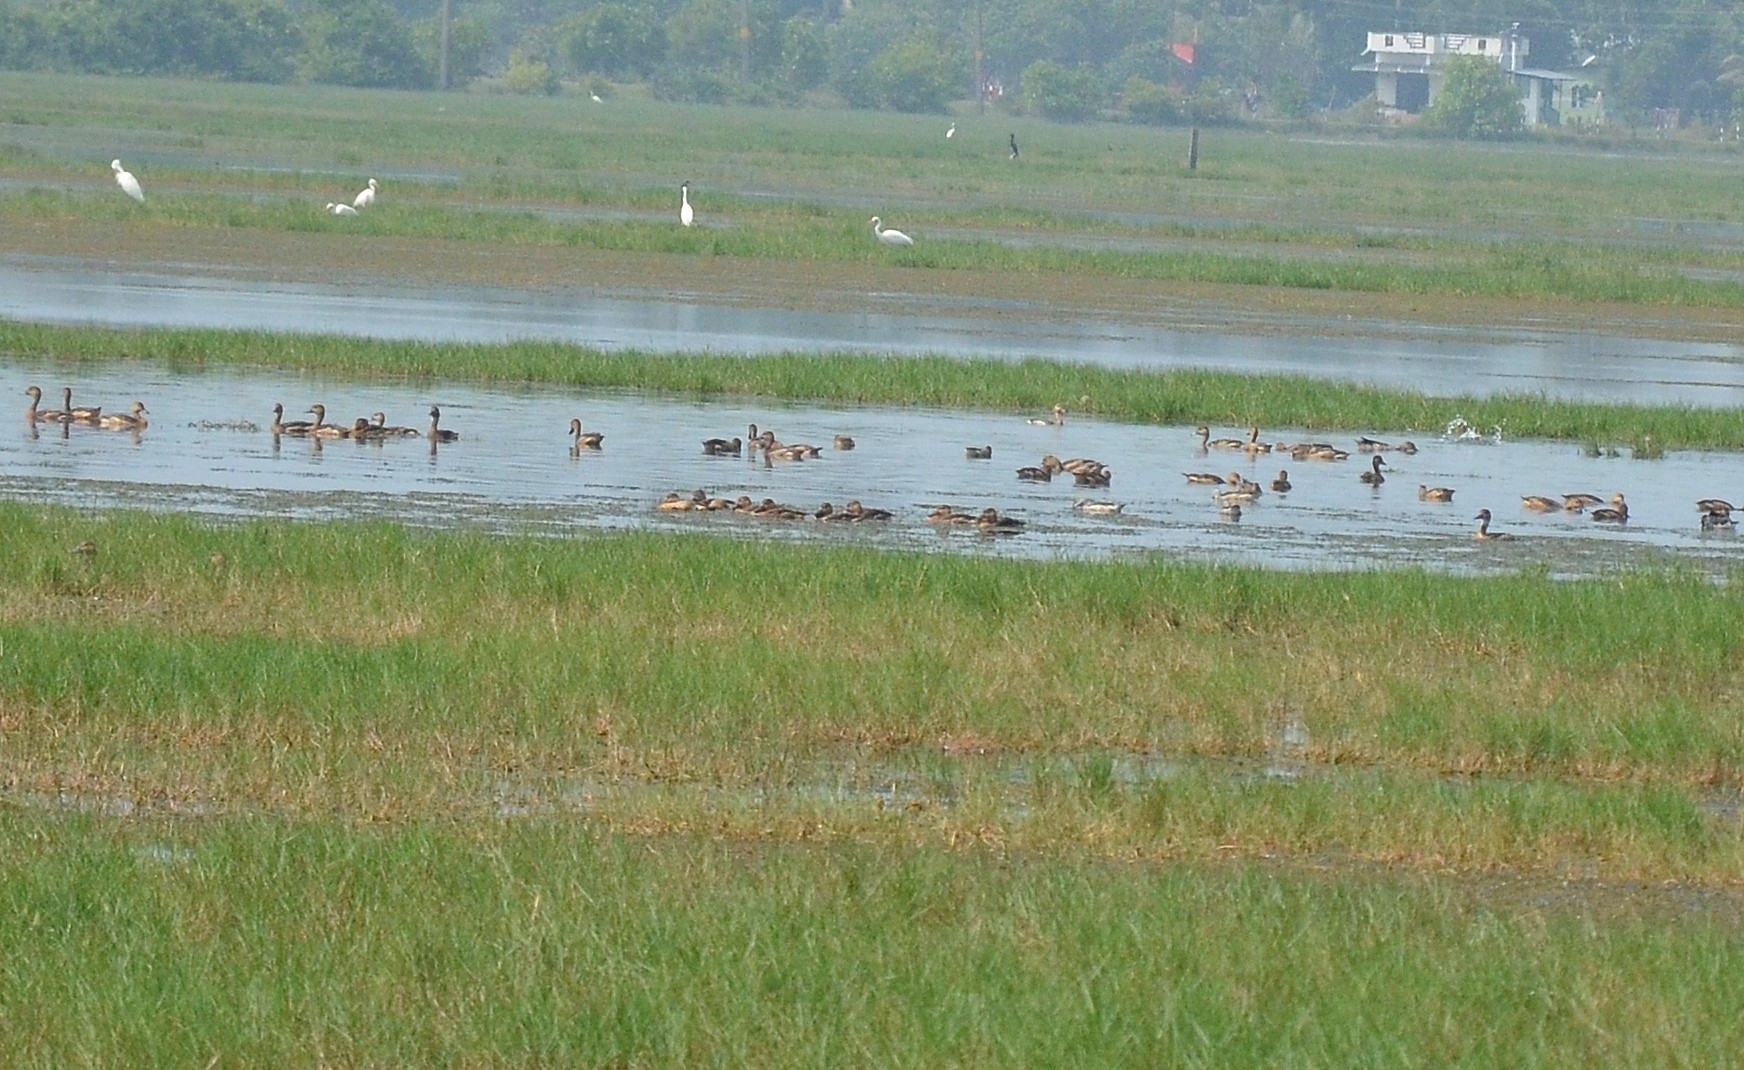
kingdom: Animalia
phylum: Chordata
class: Aves
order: Anseriformes
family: Anatidae
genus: Dendrocygna
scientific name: Dendrocygna javanica
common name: Lesser whistling-duck
